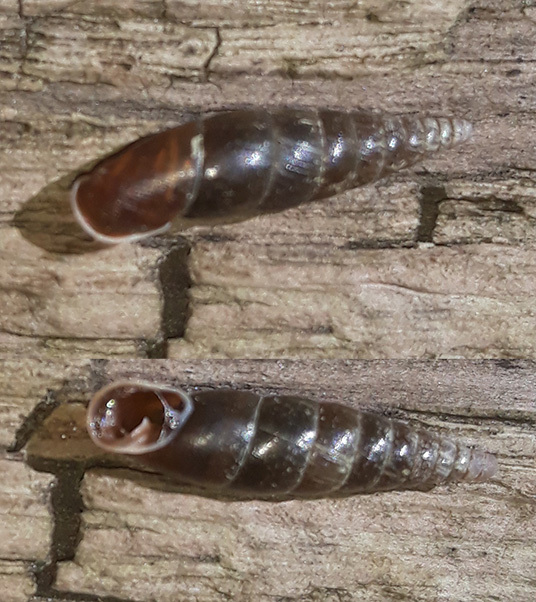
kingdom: Animalia
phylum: Mollusca
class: Gastropoda
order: Stylommatophora
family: Clausiliidae
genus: Cochlodina
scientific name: Cochlodina laminata
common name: Plaited door snail
